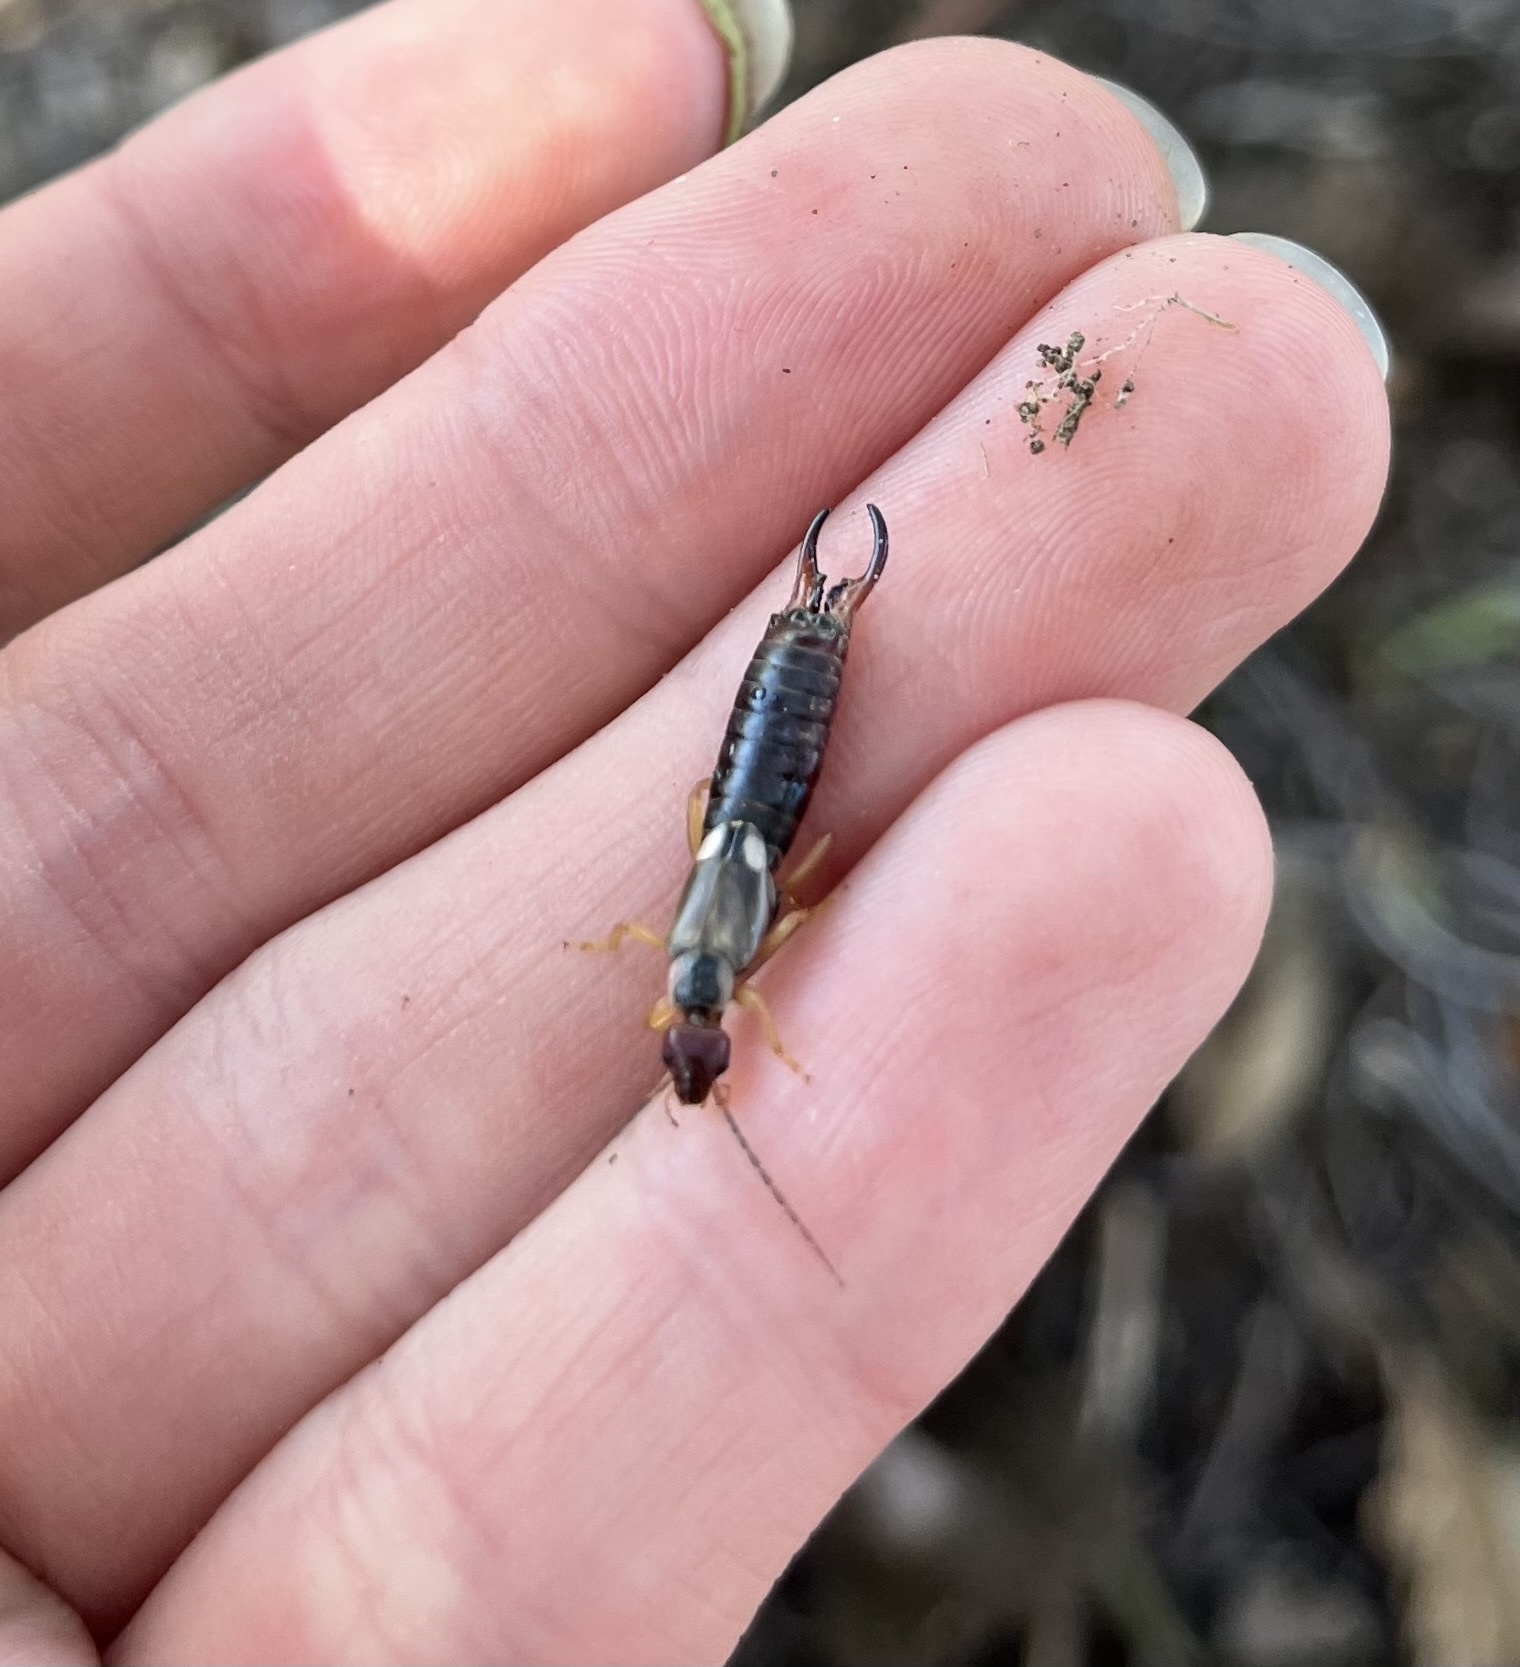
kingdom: Animalia
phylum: Arthropoda
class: Insecta
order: Dermaptera
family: Forficulidae
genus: Forficula
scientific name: Forficula
